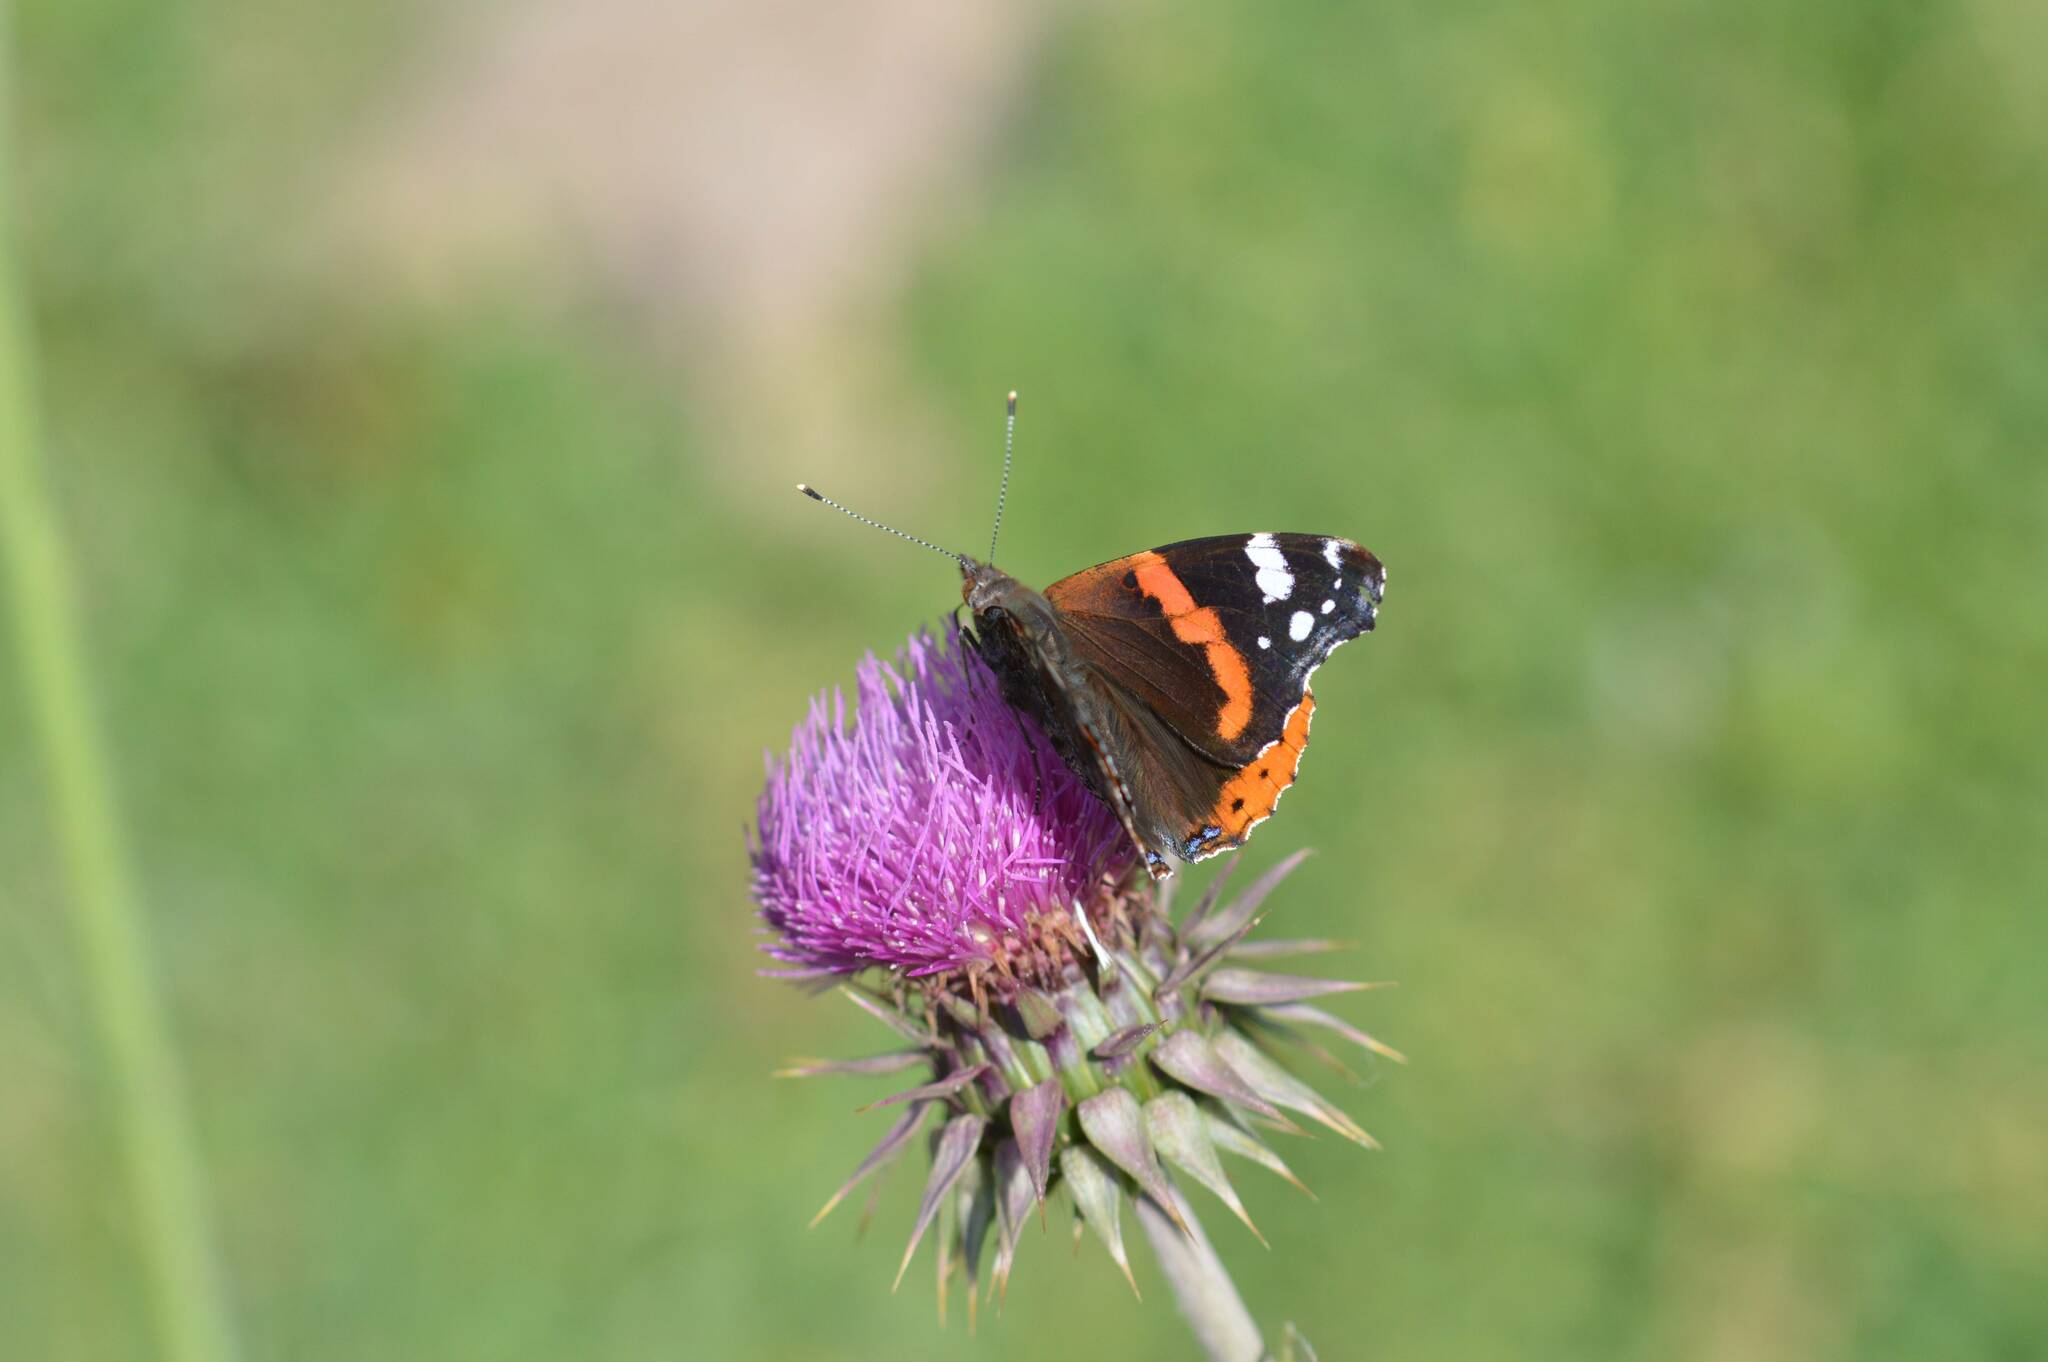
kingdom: Animalia
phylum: Arthropoda
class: Insecta
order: Lepidoptera
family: Nymphalidae
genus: Vanessa
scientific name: Vanessa atalanta
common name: Red admiral
